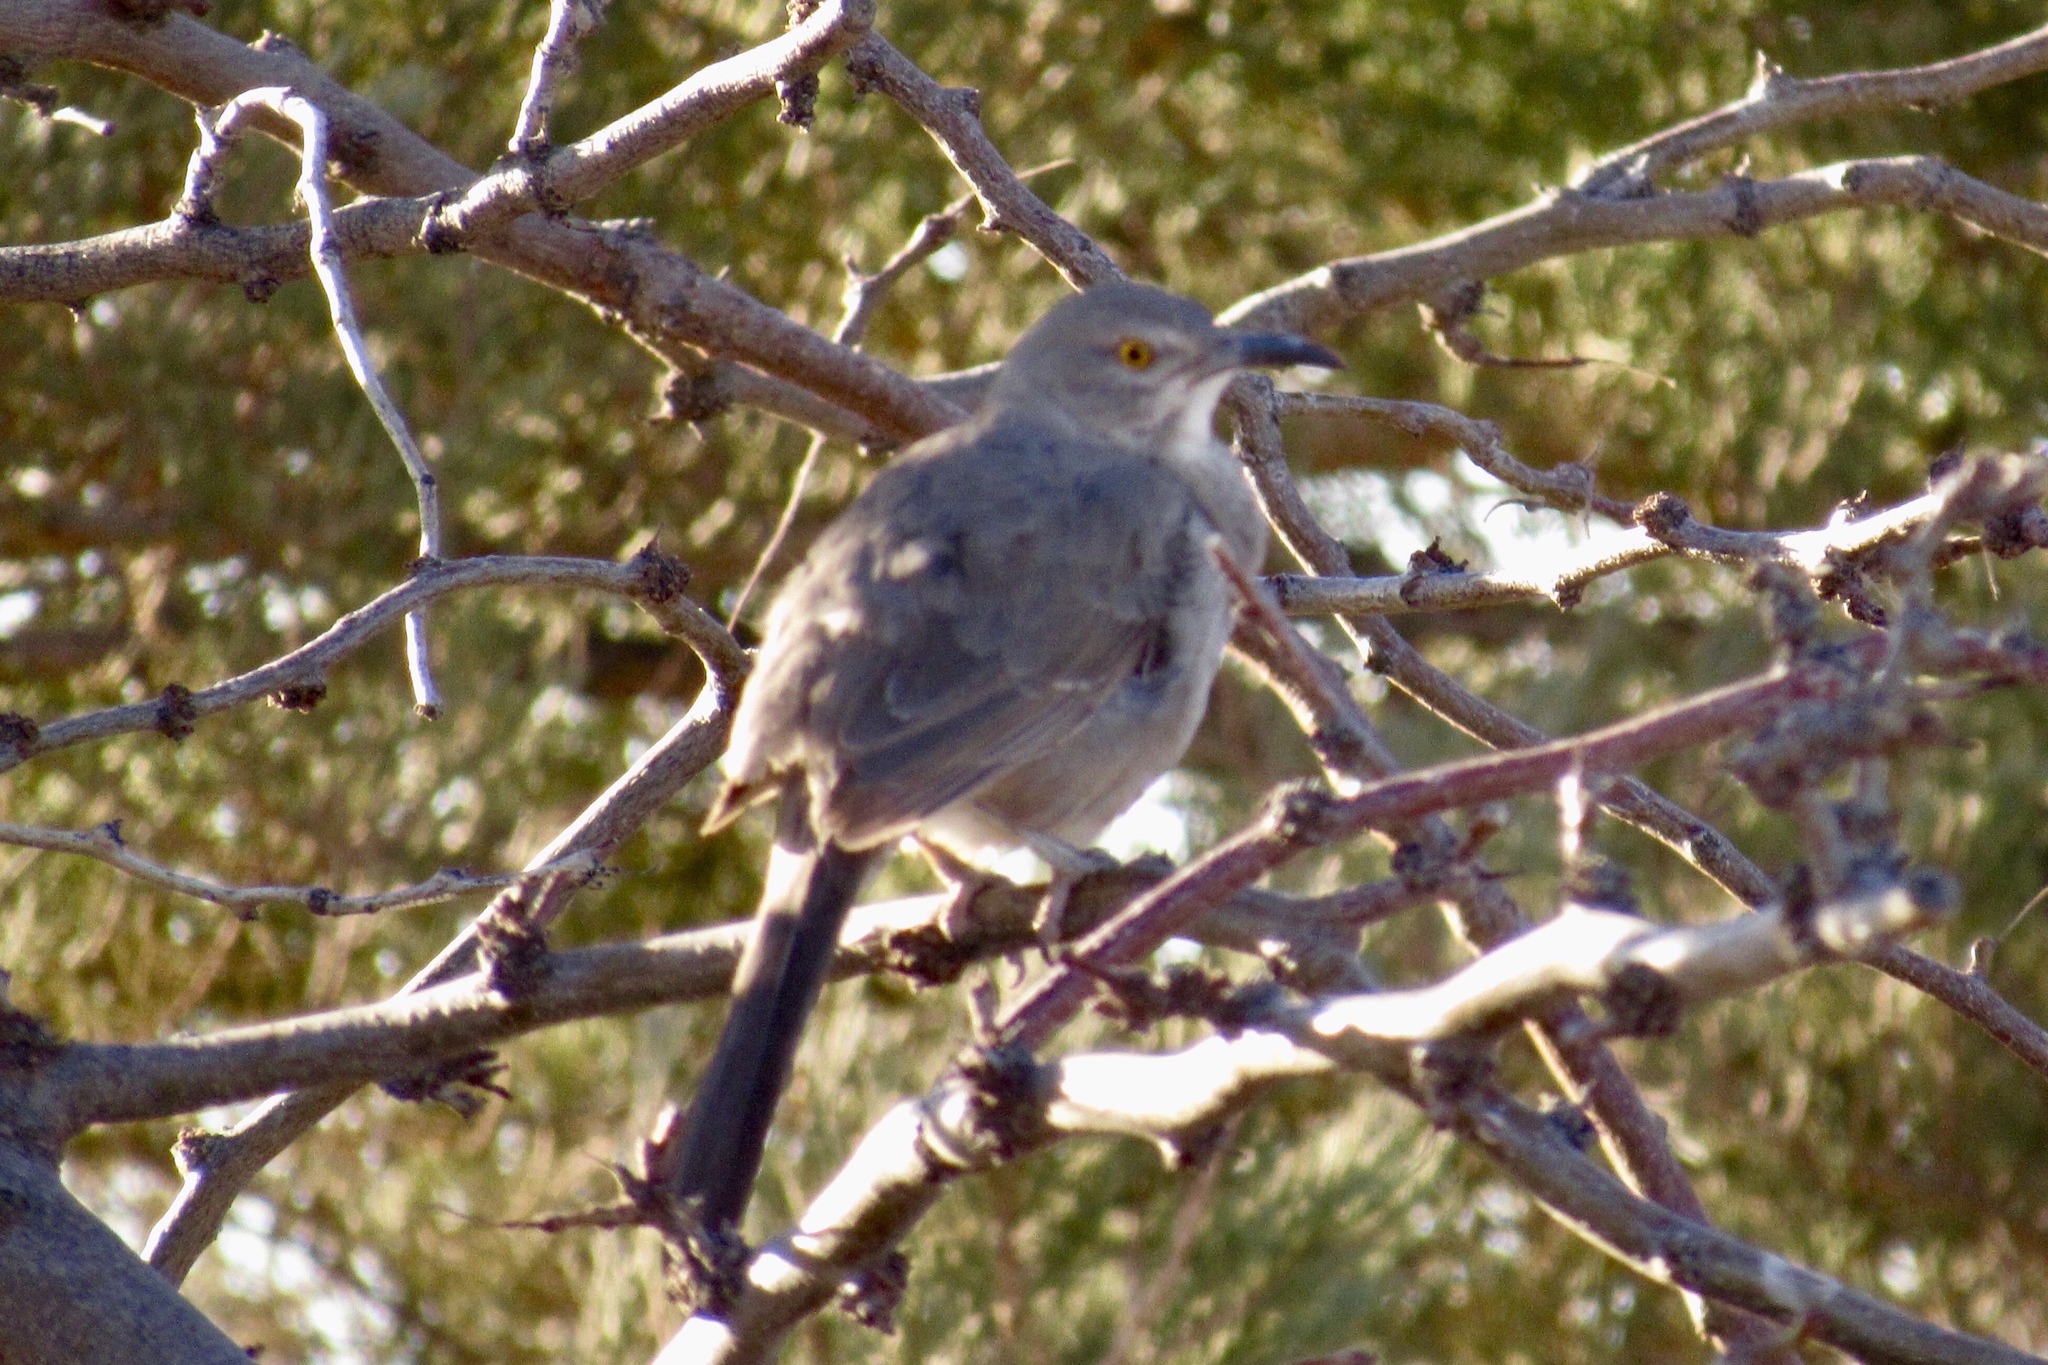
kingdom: Animalia
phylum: Chordata
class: Aves
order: Passeriformes
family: Mimidae
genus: Toxostoma
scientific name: Toxostoma bendirei
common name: Bendire's thrasher
